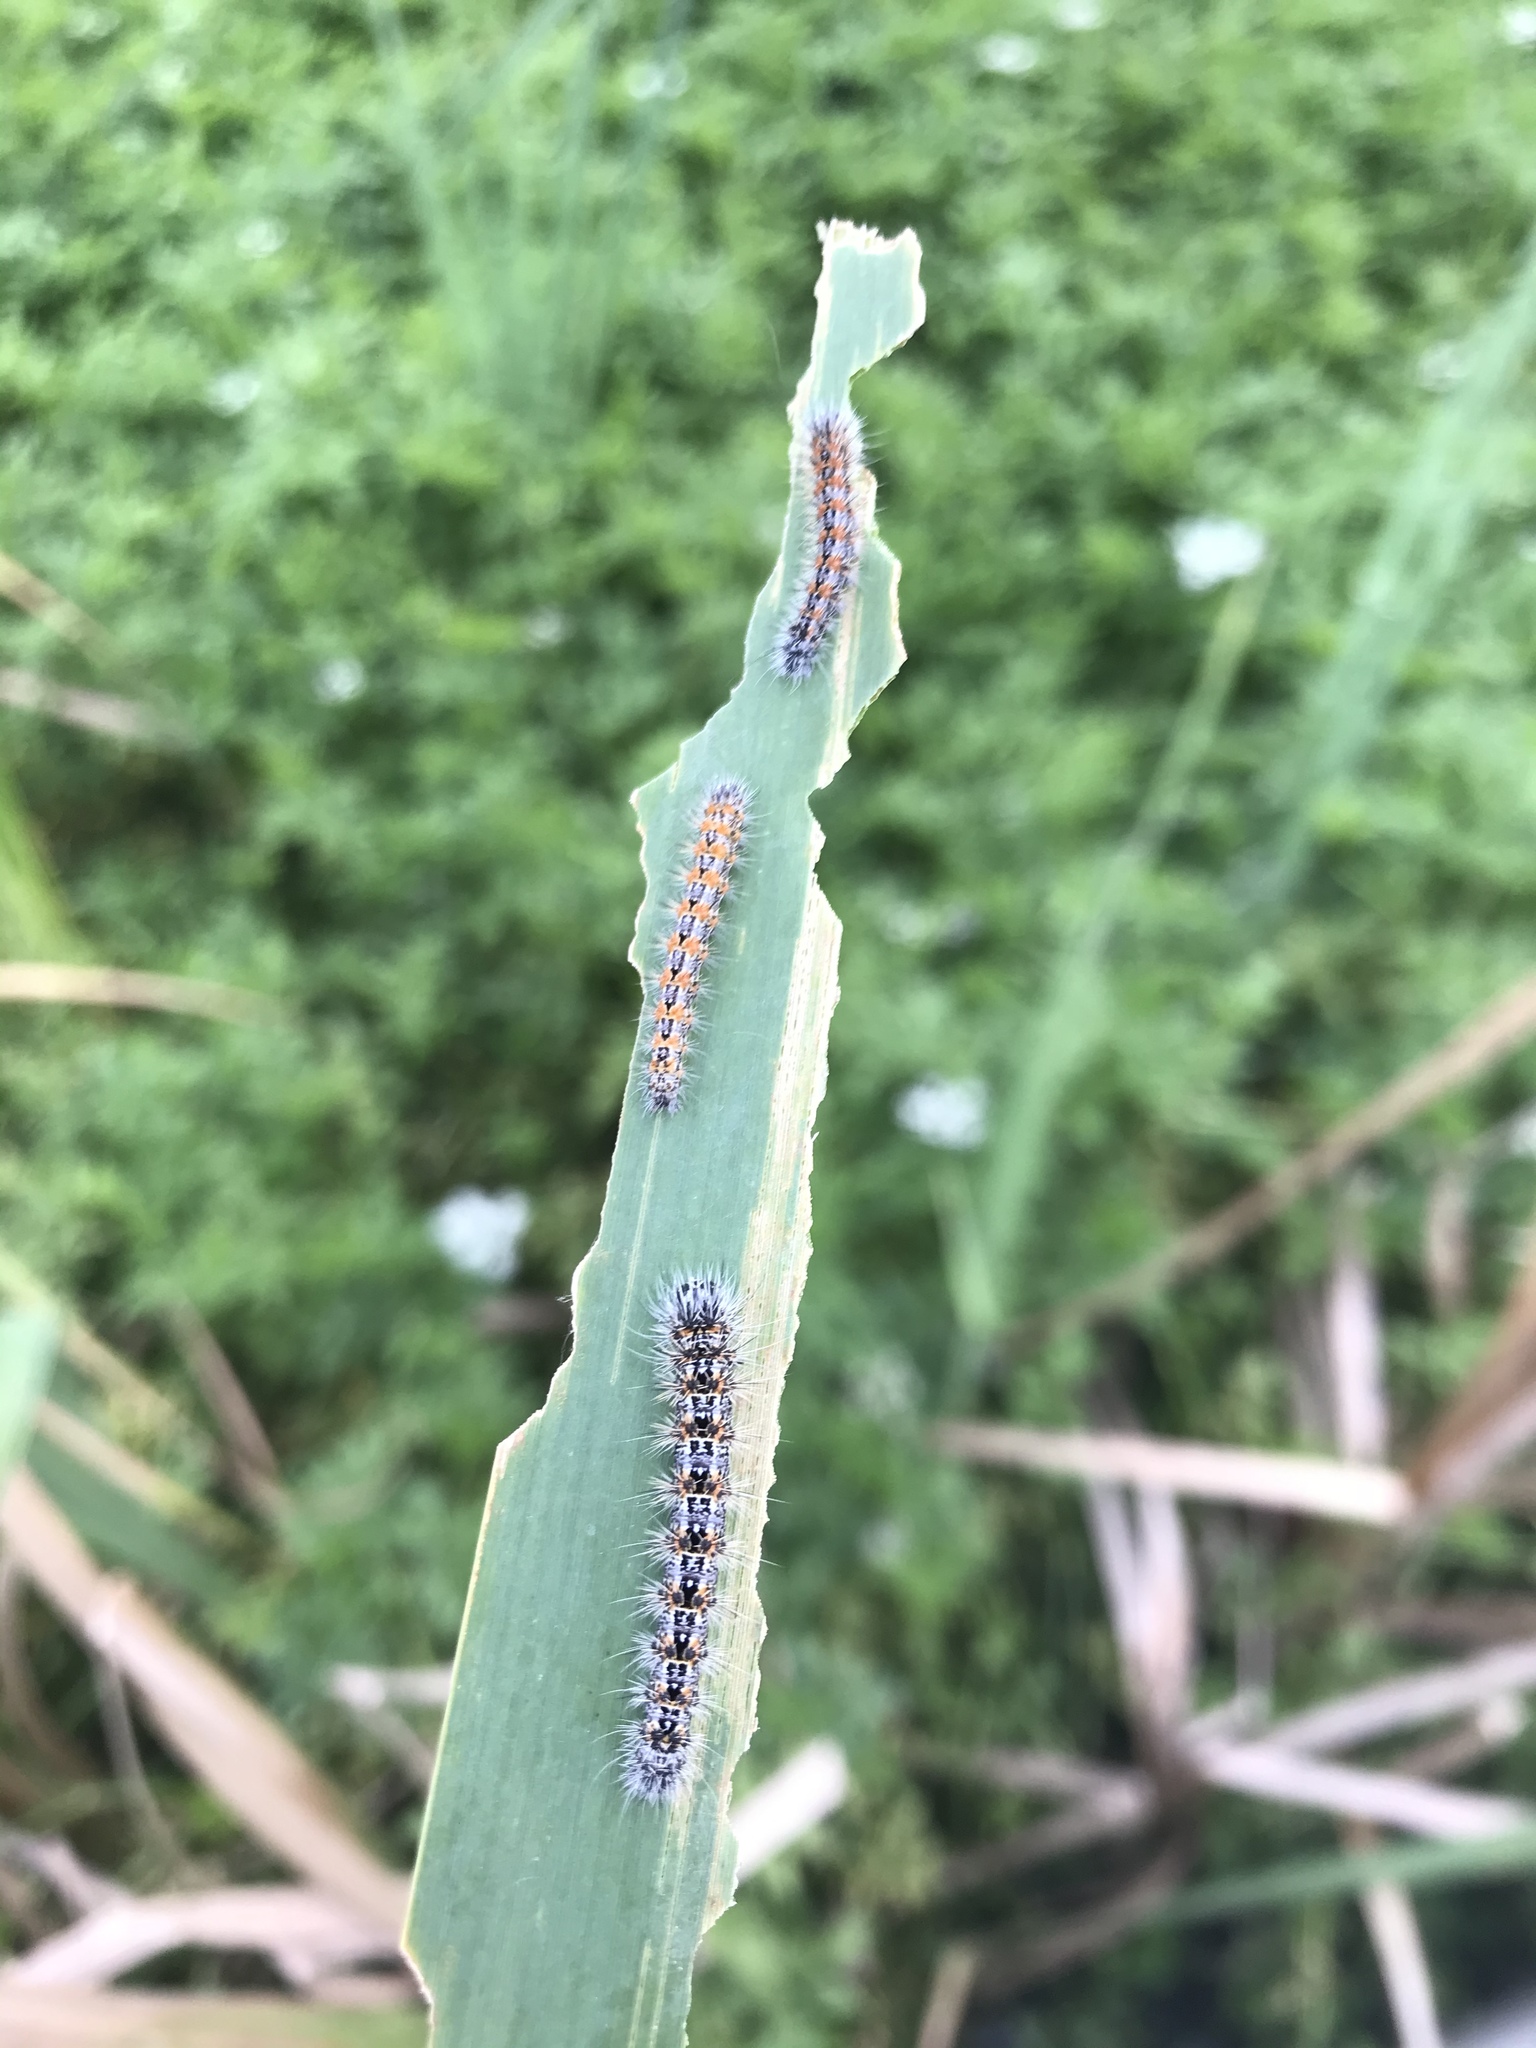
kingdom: Animalia
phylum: Arthropoda
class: Insecta
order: Lepidoptera
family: Noctuidae
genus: Acronicta
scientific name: Acronicta insularis
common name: Henry's marsh moth
